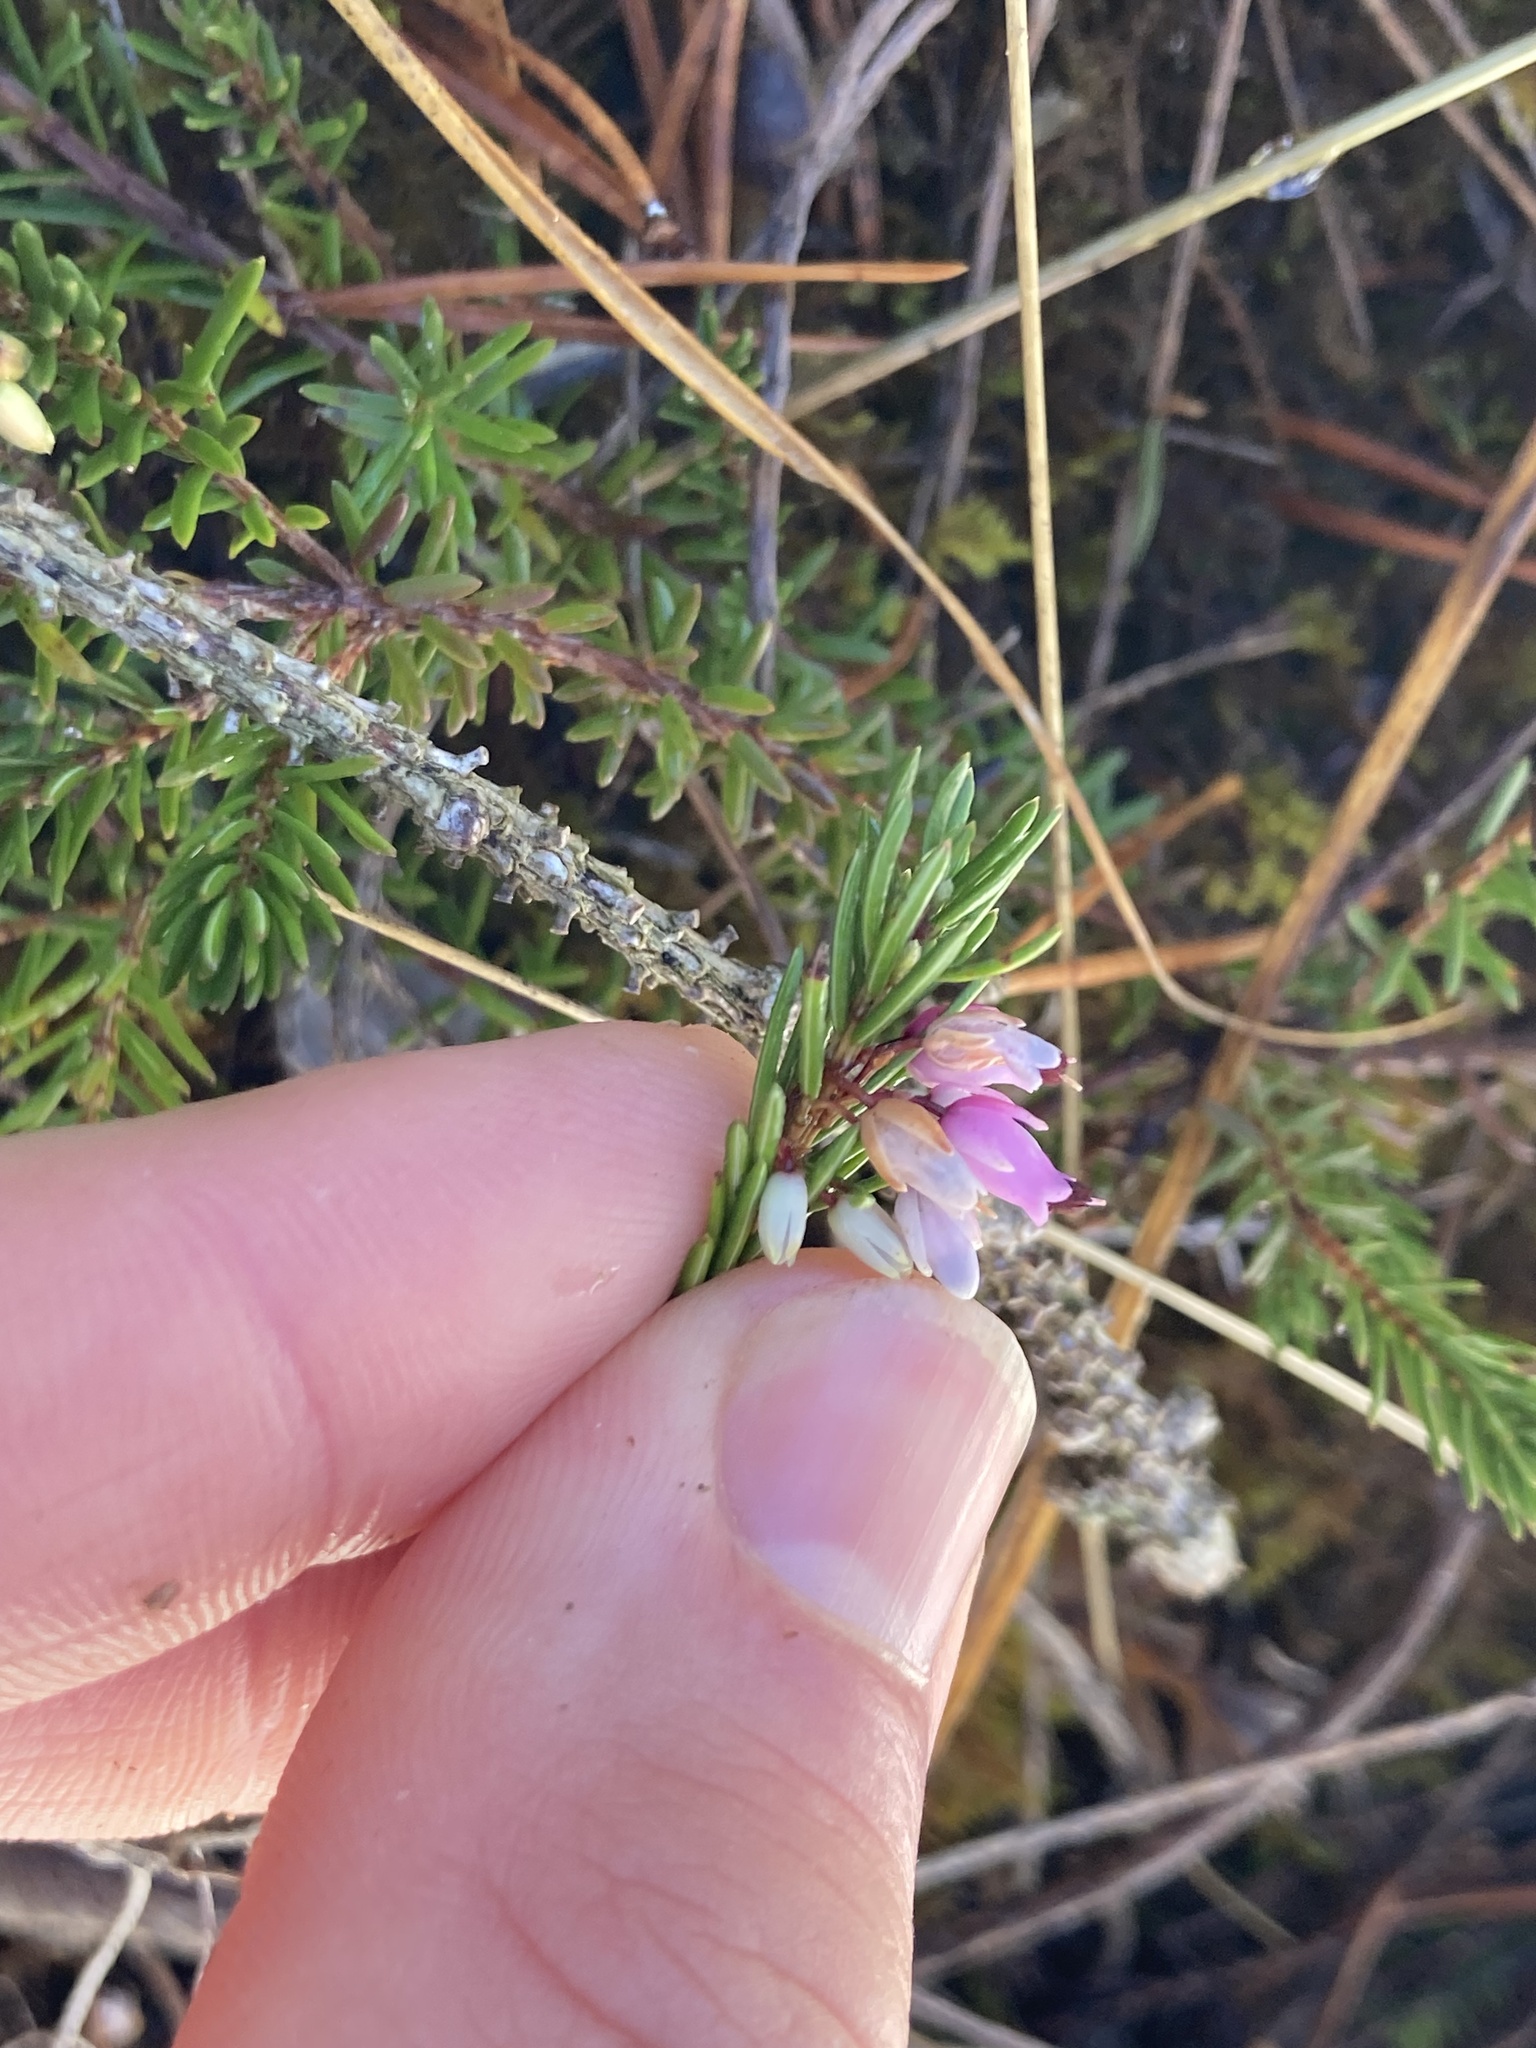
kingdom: Plantae
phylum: Tracheophyta
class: Magnoliopsida
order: Ericales
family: Ericaceae
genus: Erica
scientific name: Erica carnea
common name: Winter heath
